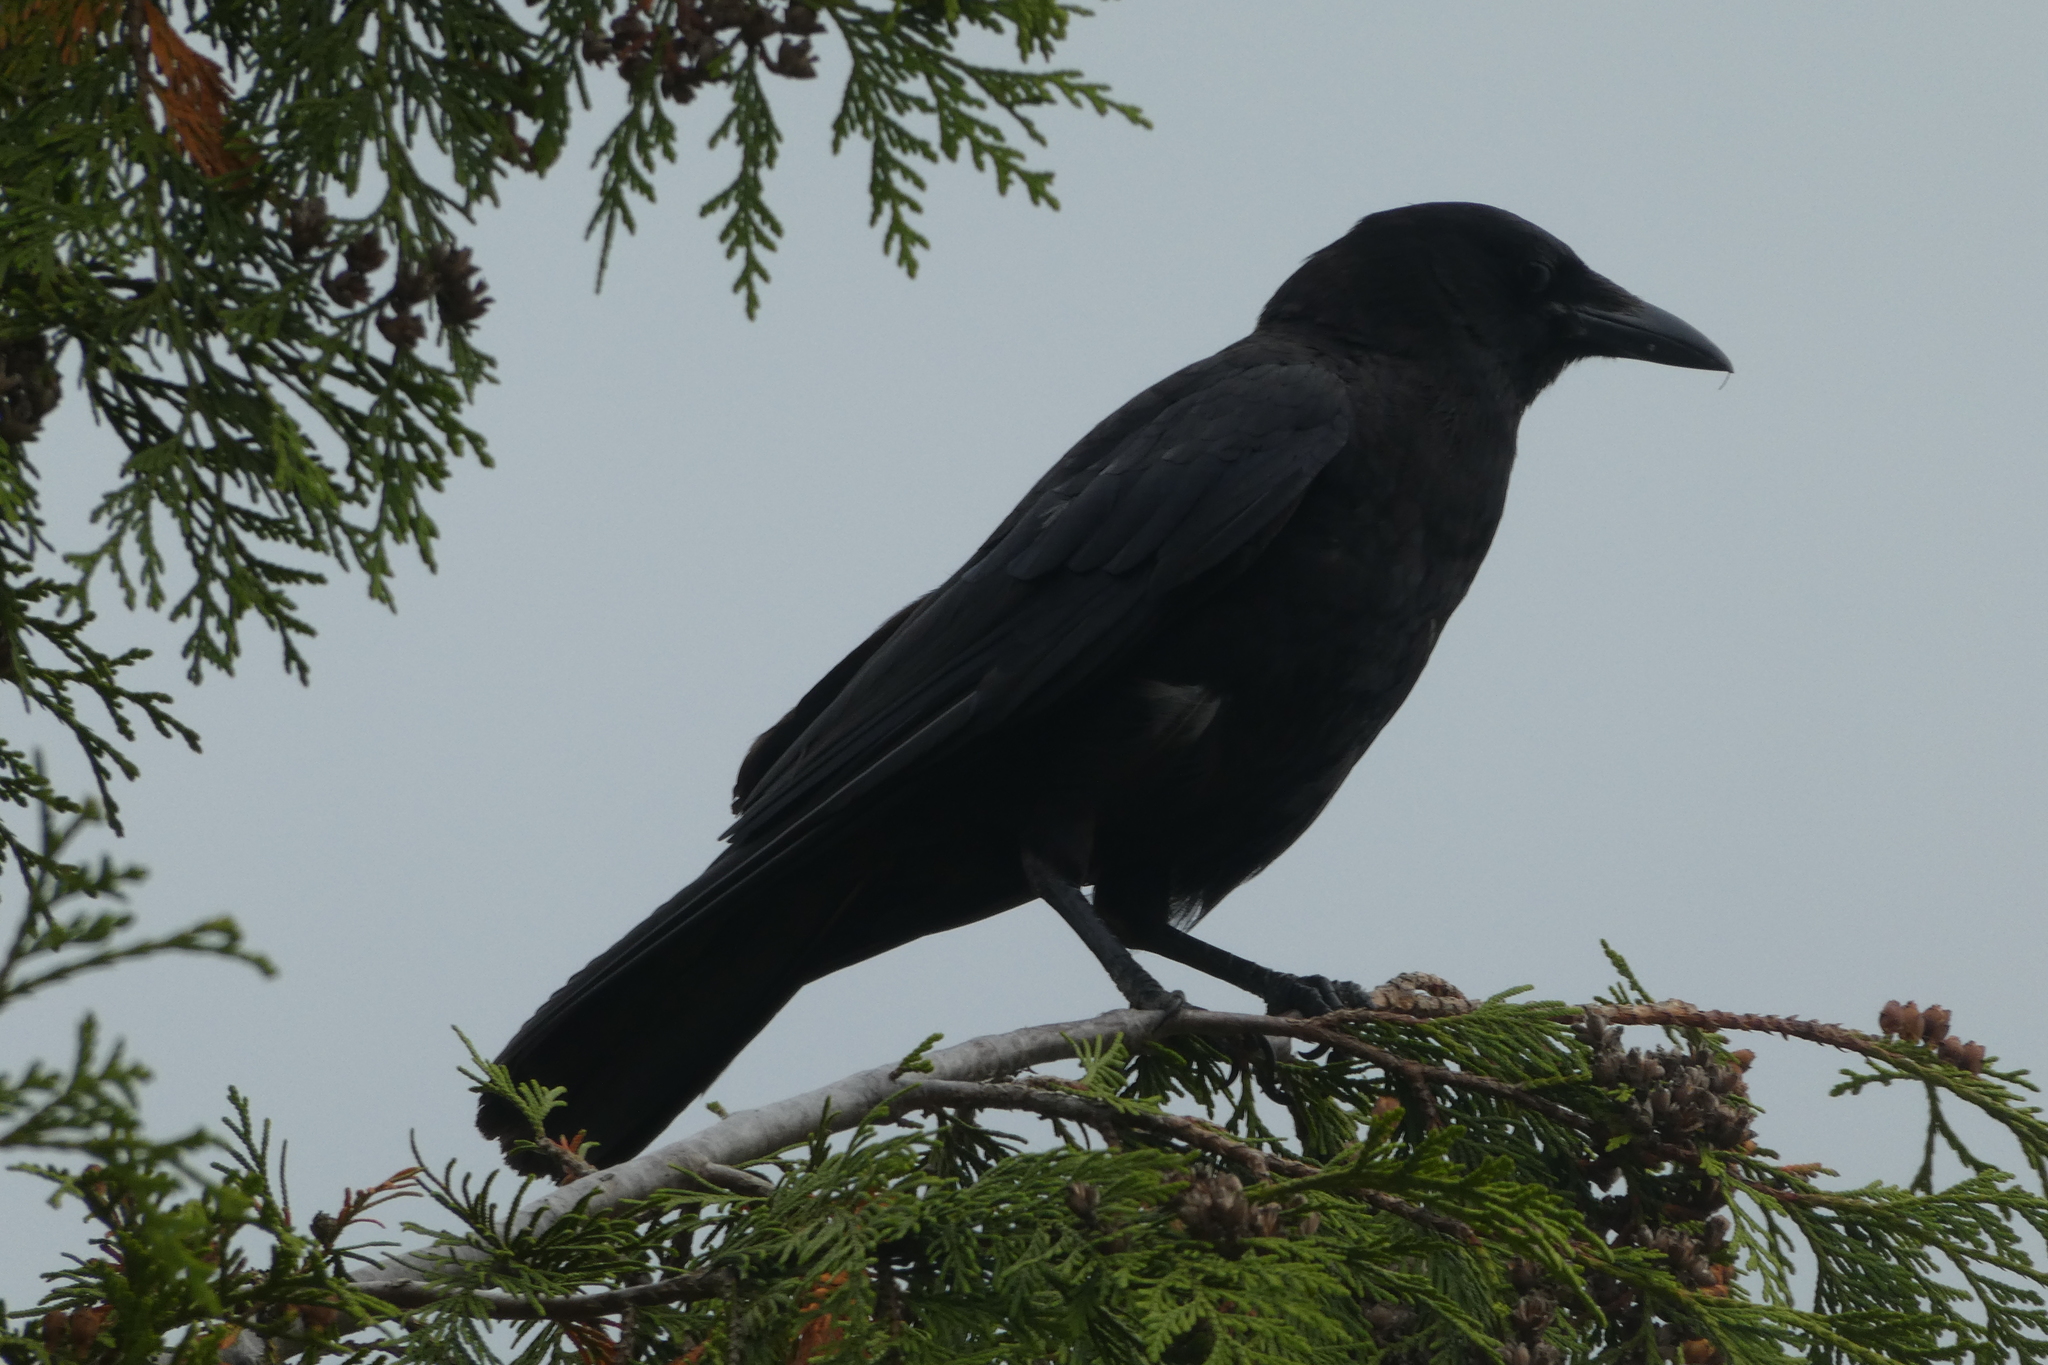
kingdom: Animalia
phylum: Chordata
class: Aves
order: Passeriformes
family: Corvidae
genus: Corvus
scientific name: Corvus brachyrhynchos
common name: American crow
